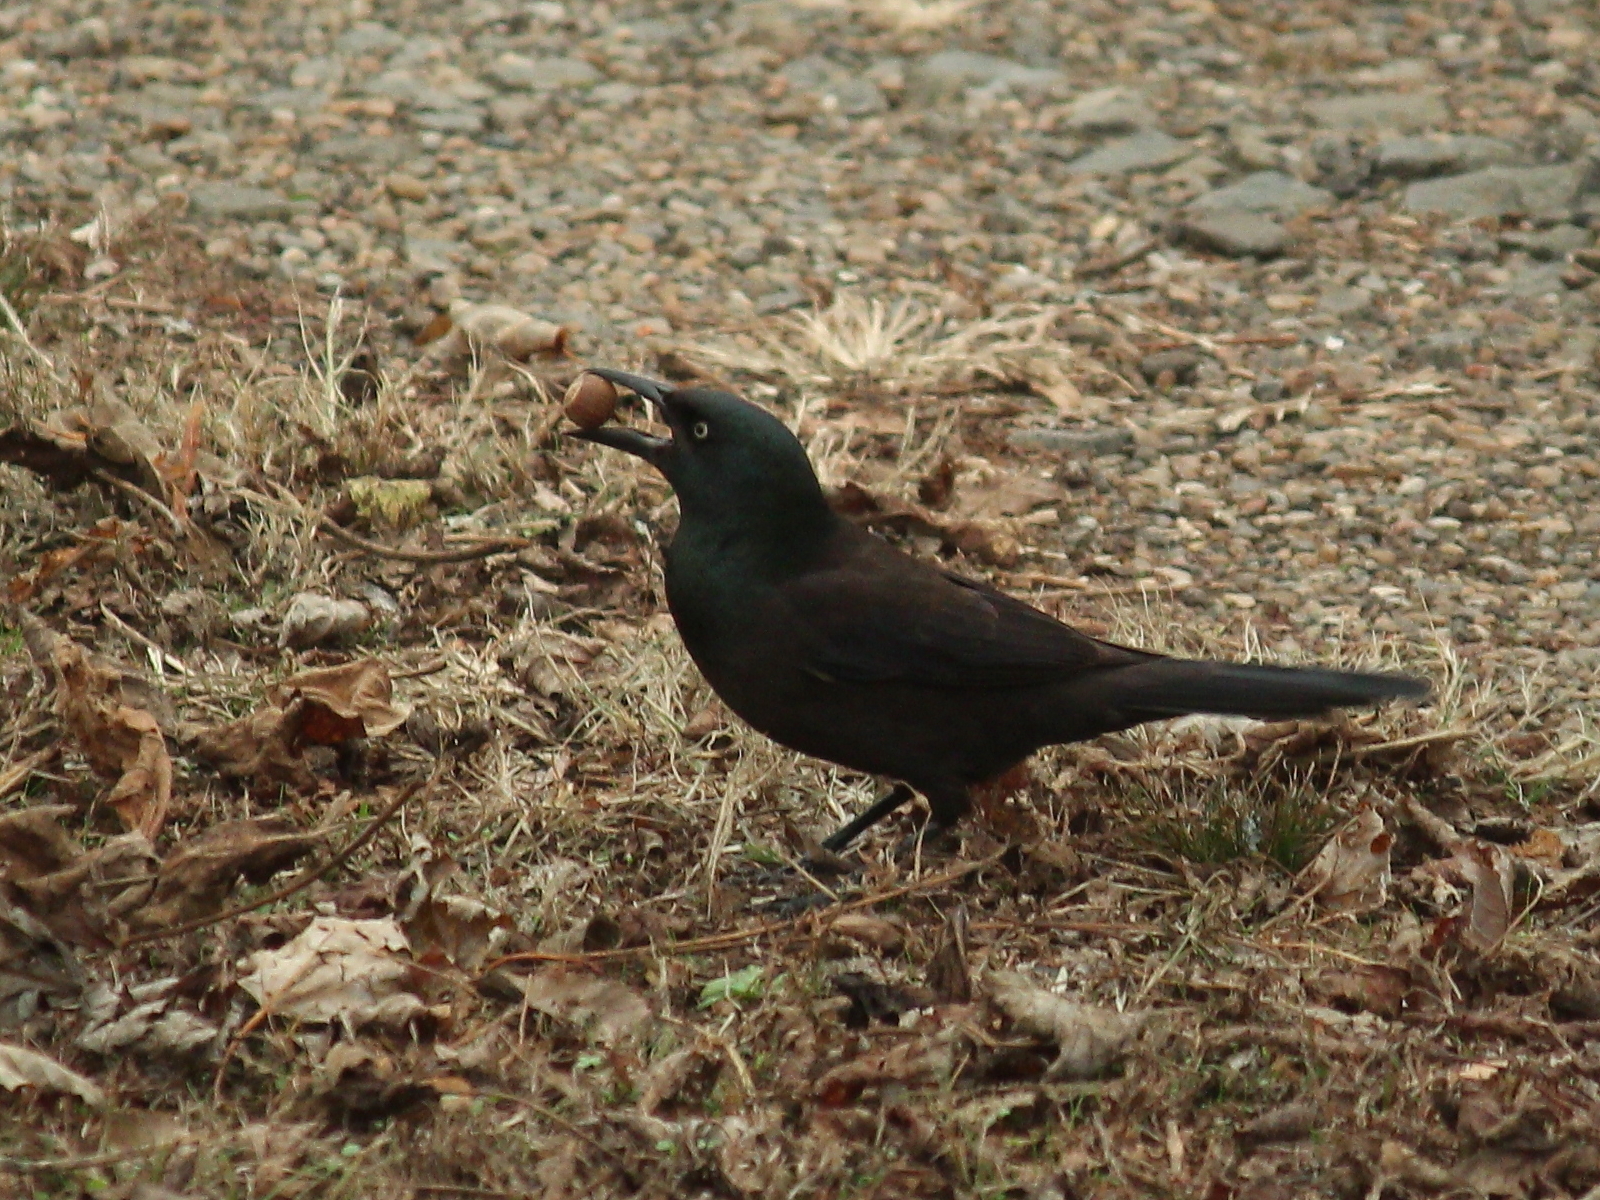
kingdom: Animalia
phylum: Chordata
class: Aves
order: Passeriformes
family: Icteridae
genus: Quiscalus
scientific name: Quiscalus quiscula
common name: Common grackle
